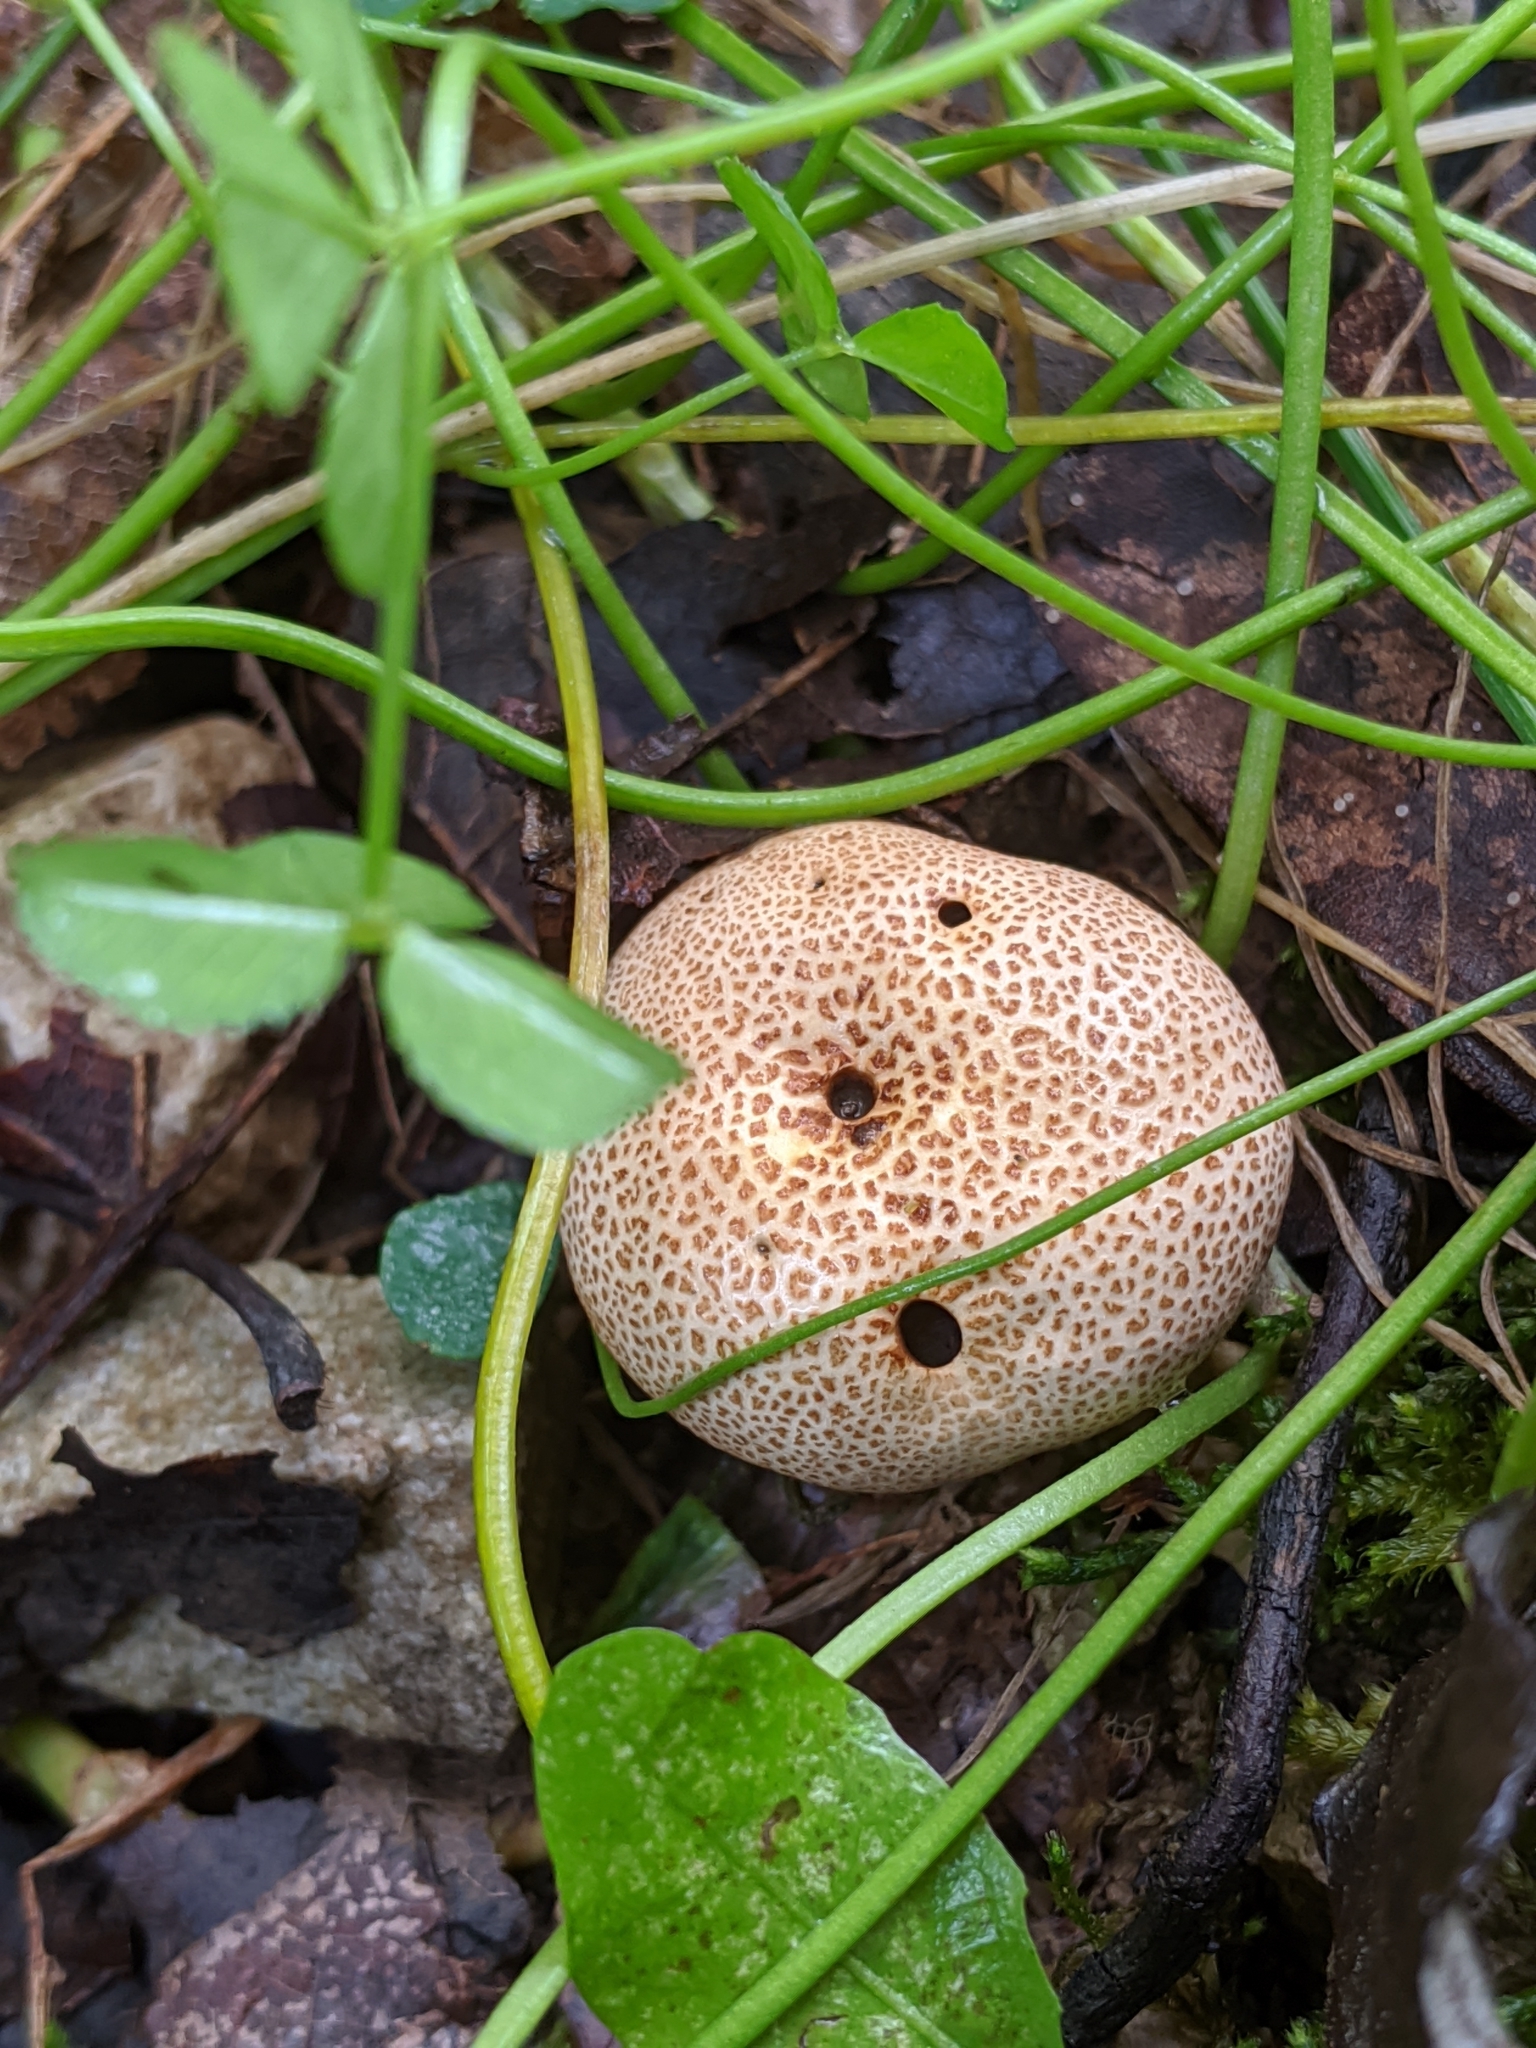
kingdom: Fungi
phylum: Basidiomycota
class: Agaricomycetes
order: Boletales
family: Sclerodermataceae
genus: Scleroderma
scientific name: Scleroderma citrinum
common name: Common earthball
